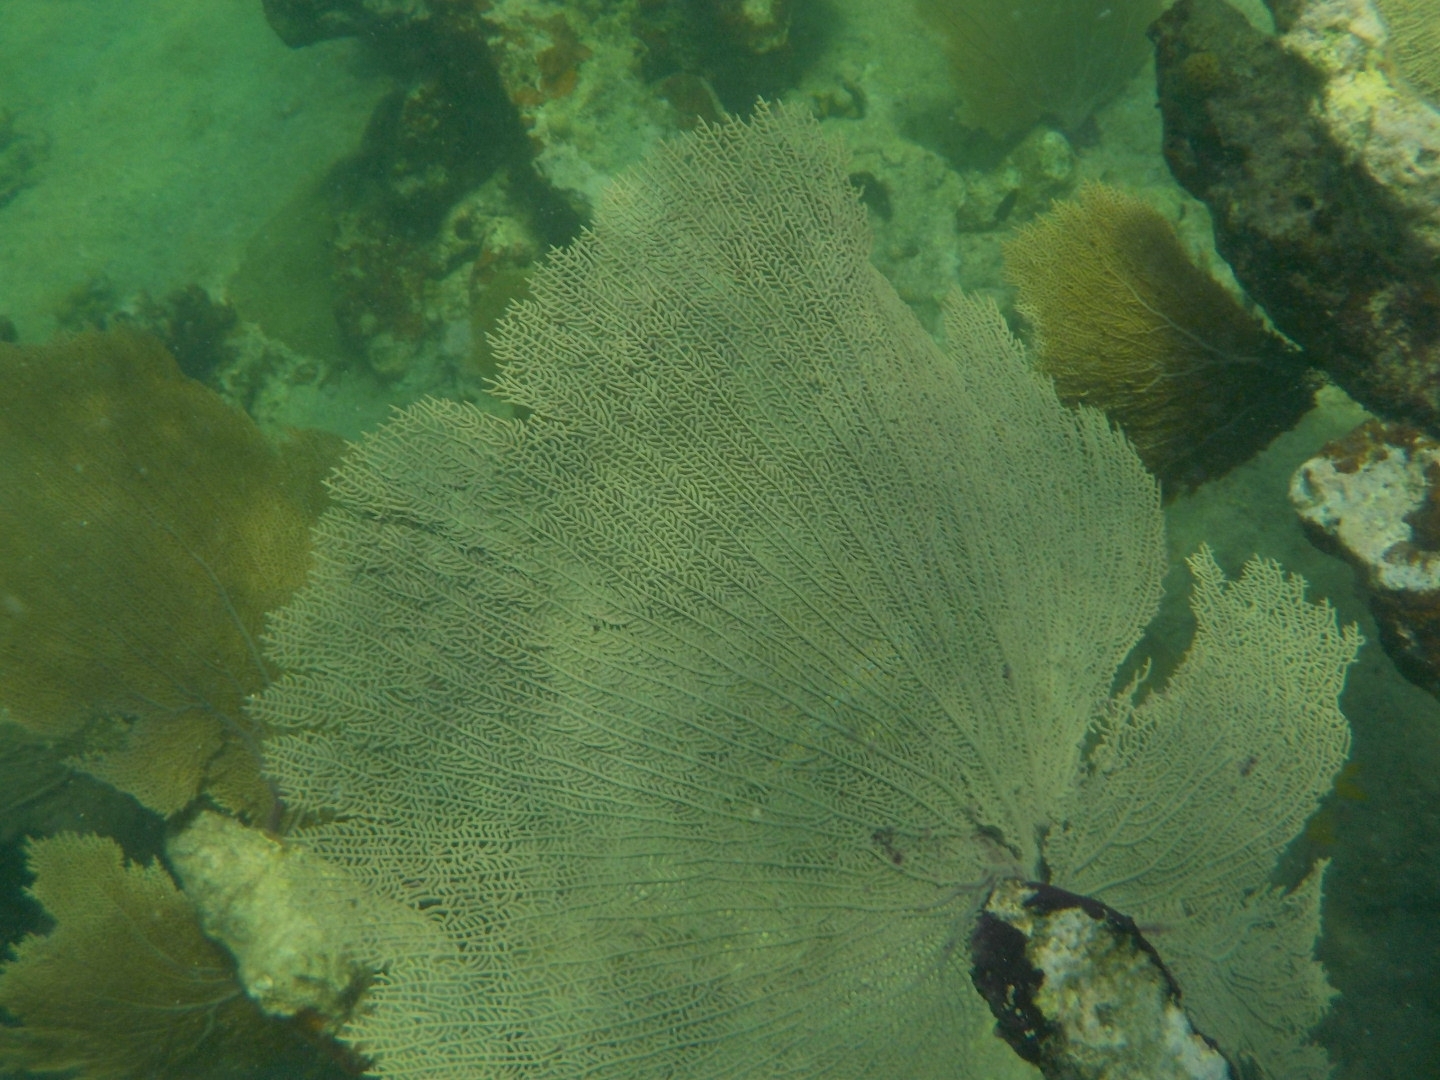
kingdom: Animalia
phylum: Cnidaria
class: Anthozoa
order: Malacalcyonacea
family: Gorgoniidae
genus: Gorgonia
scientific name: Gorgonia ventalina
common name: Common sea fan
